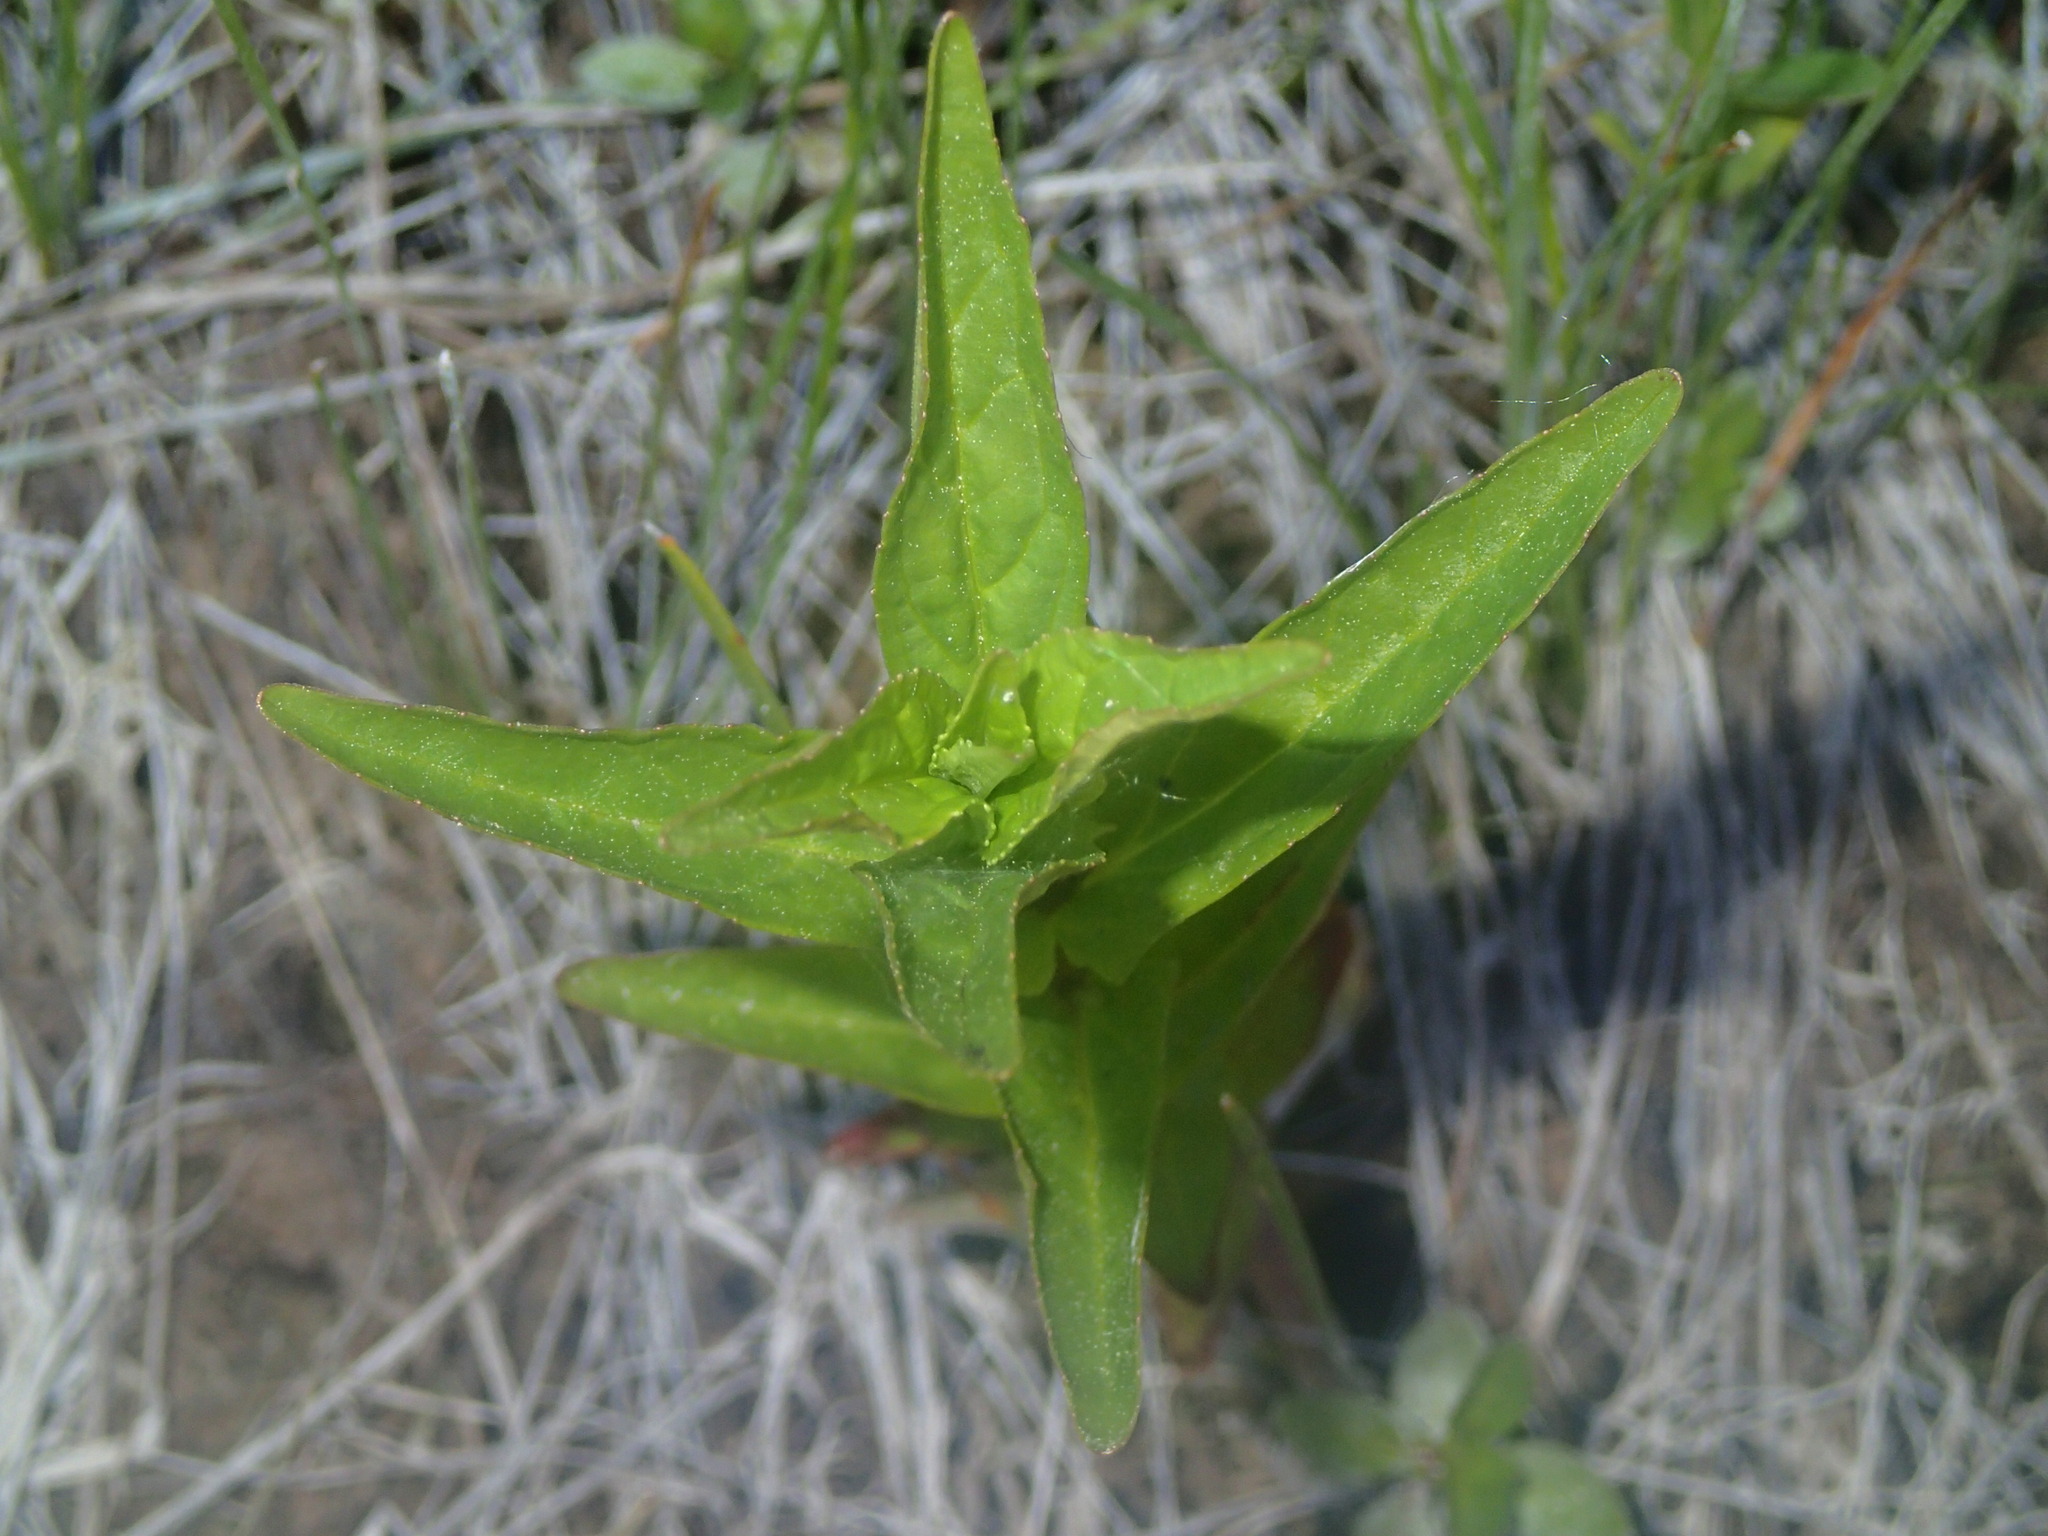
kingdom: Plantae
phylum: Tracheophyta
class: Magnoliopsida
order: Lamiales
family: Phrymaceae
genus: Mimulus
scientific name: Mimulus ringens
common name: Allegheny monkeyflower
